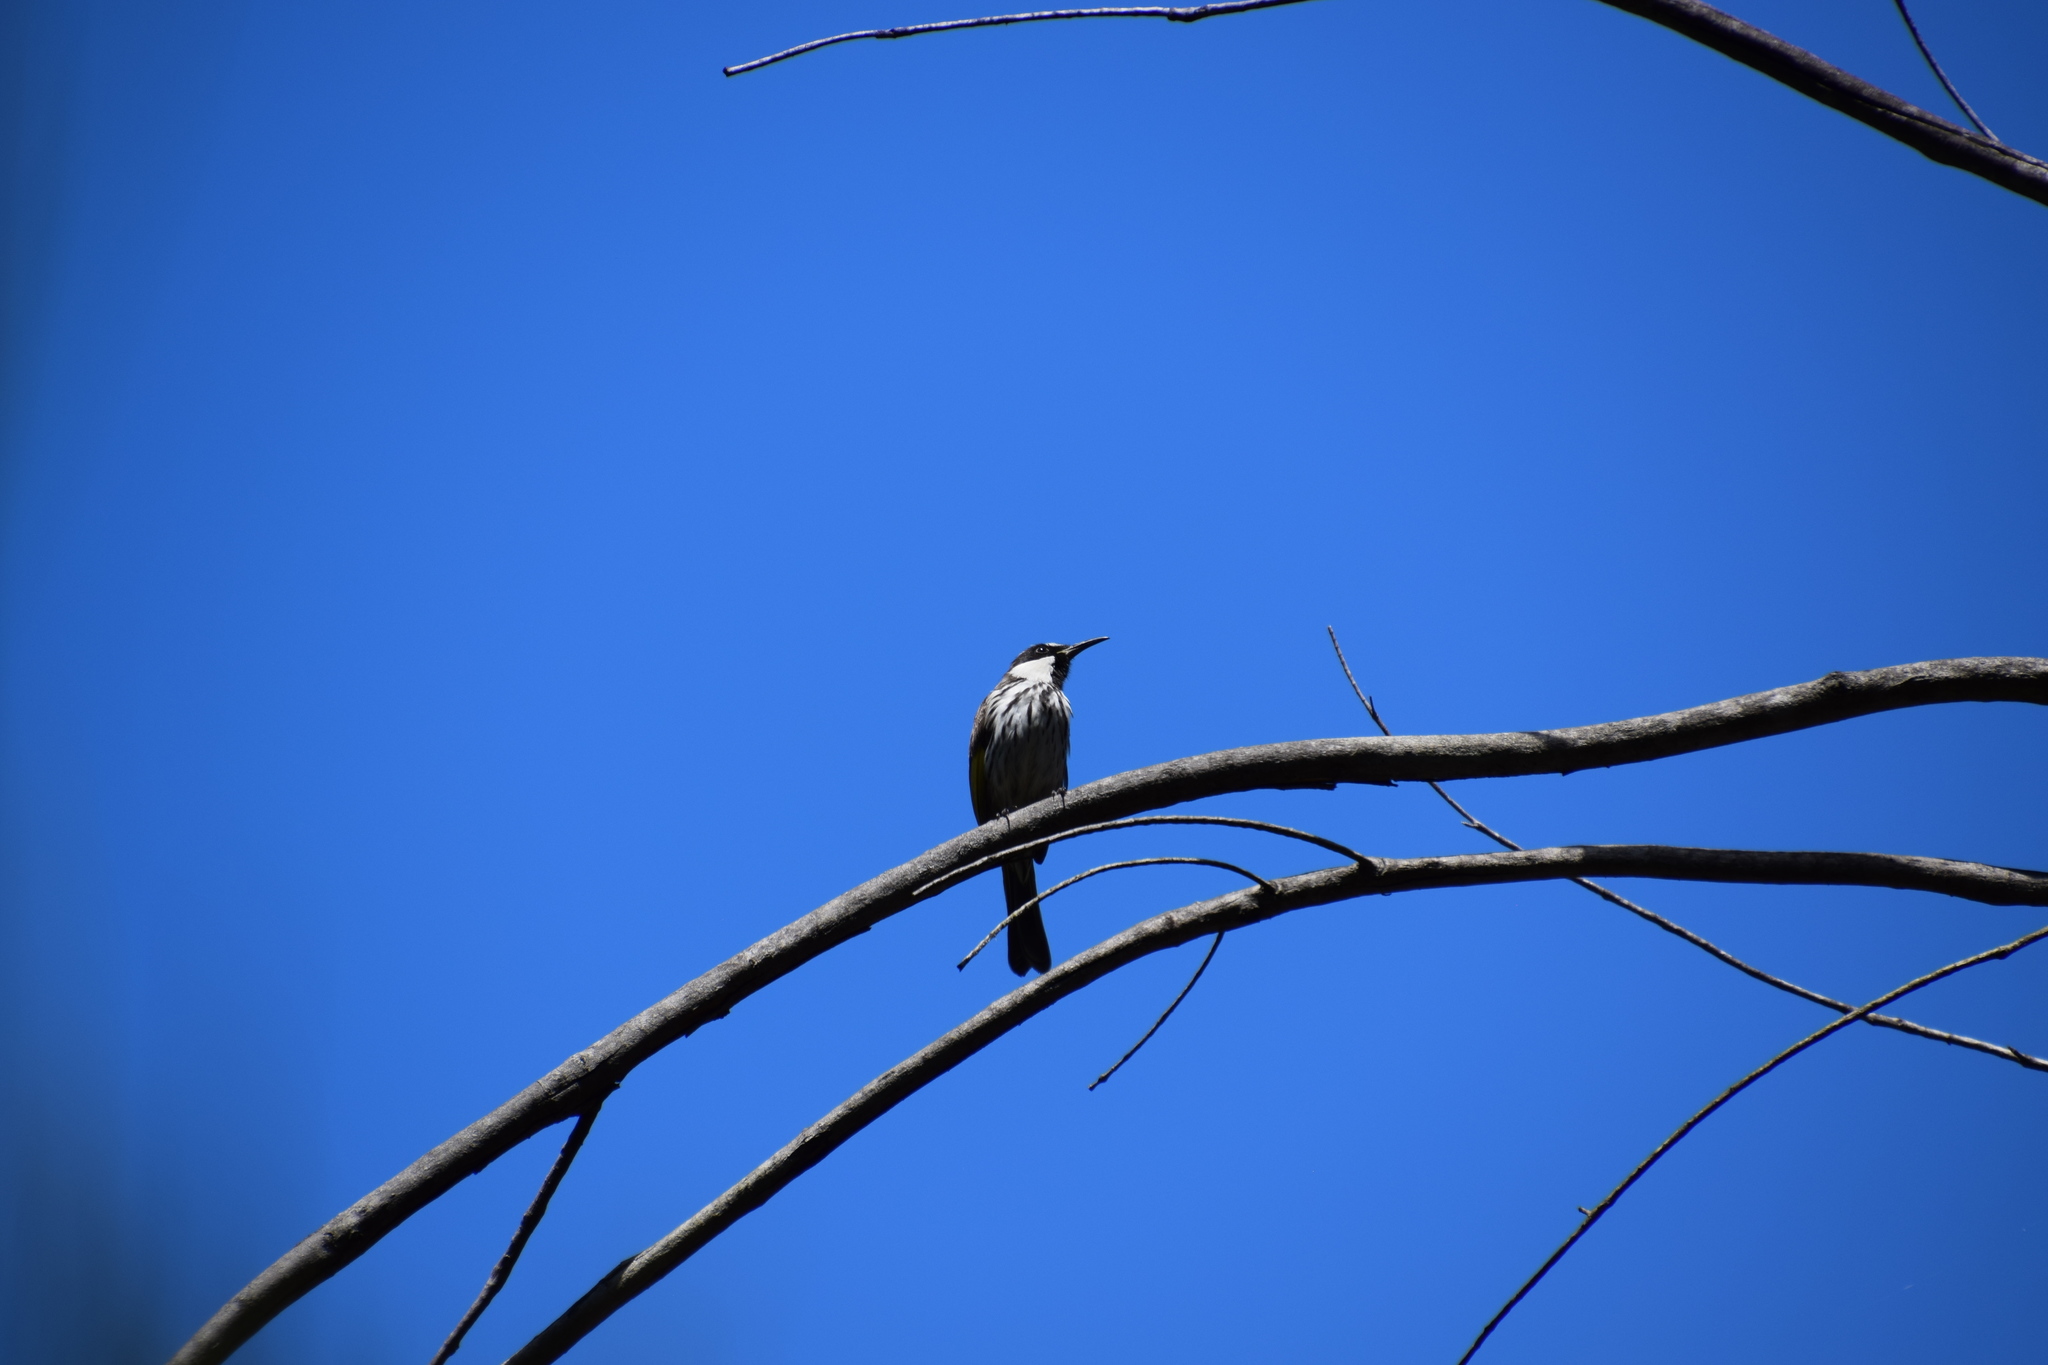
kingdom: Animalia
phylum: Chordata
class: Aves
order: Passeriformes
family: Meliphagidae
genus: Phylidonyris
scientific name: Phylidonyris niger
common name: White-cheeked honeyeater
